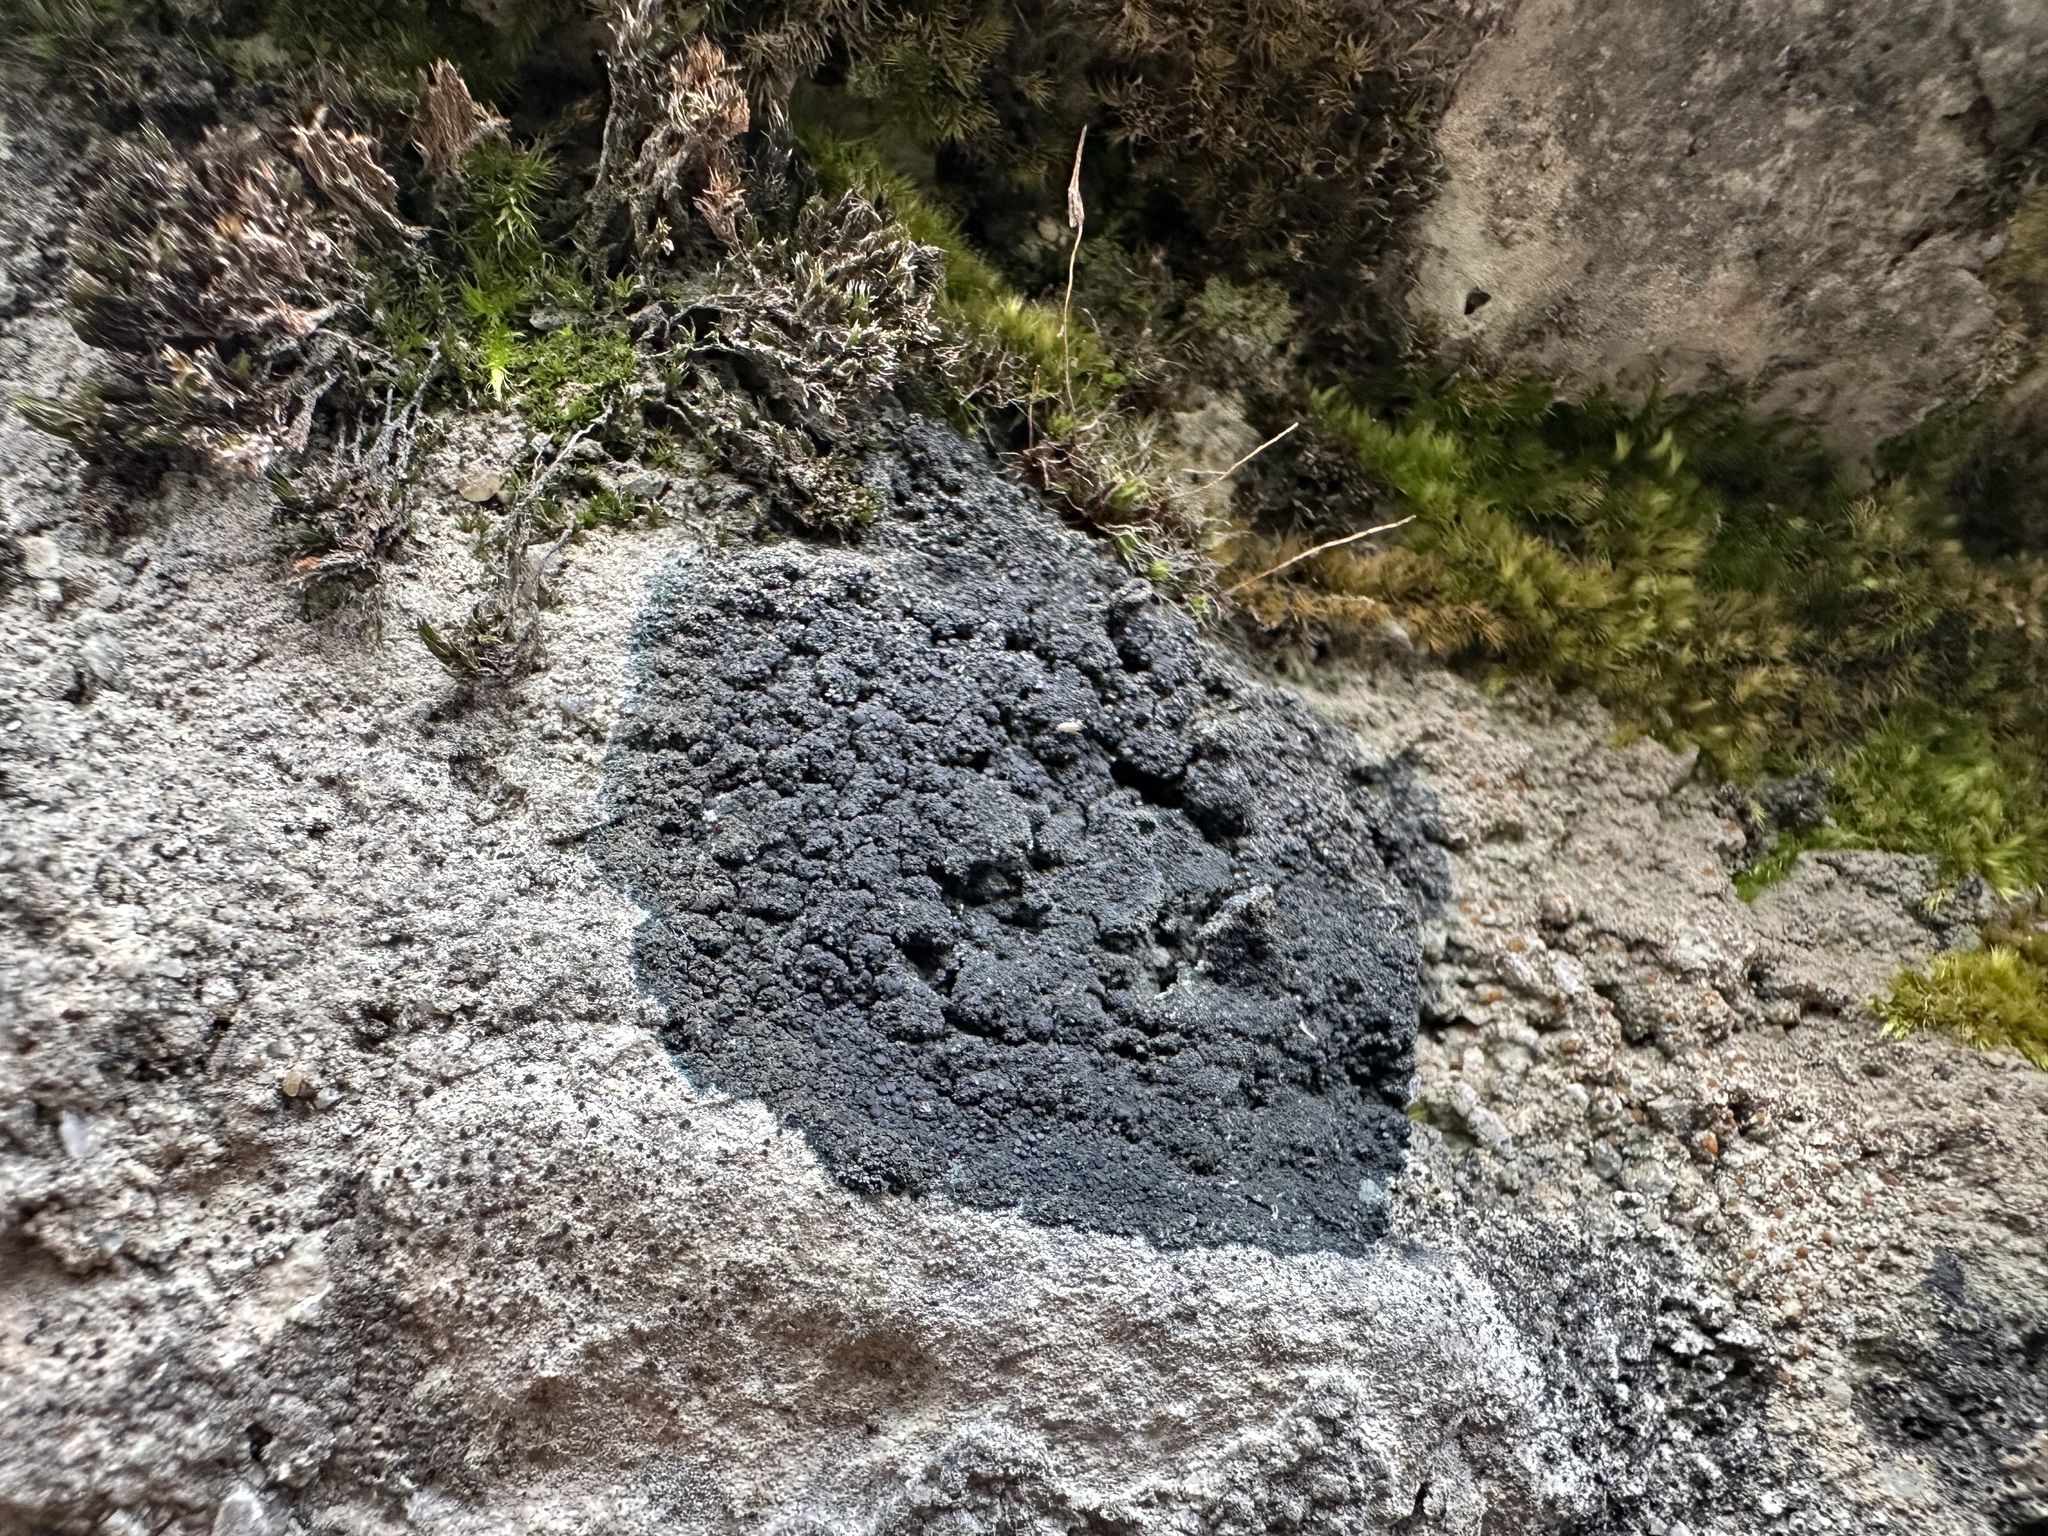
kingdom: Fungi
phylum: Ascomycota
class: Lecanoromycetes
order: Peltigerales
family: Placynthiaceae
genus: Placynthium
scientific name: Placynthium nigrum
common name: Blackthread lichen
